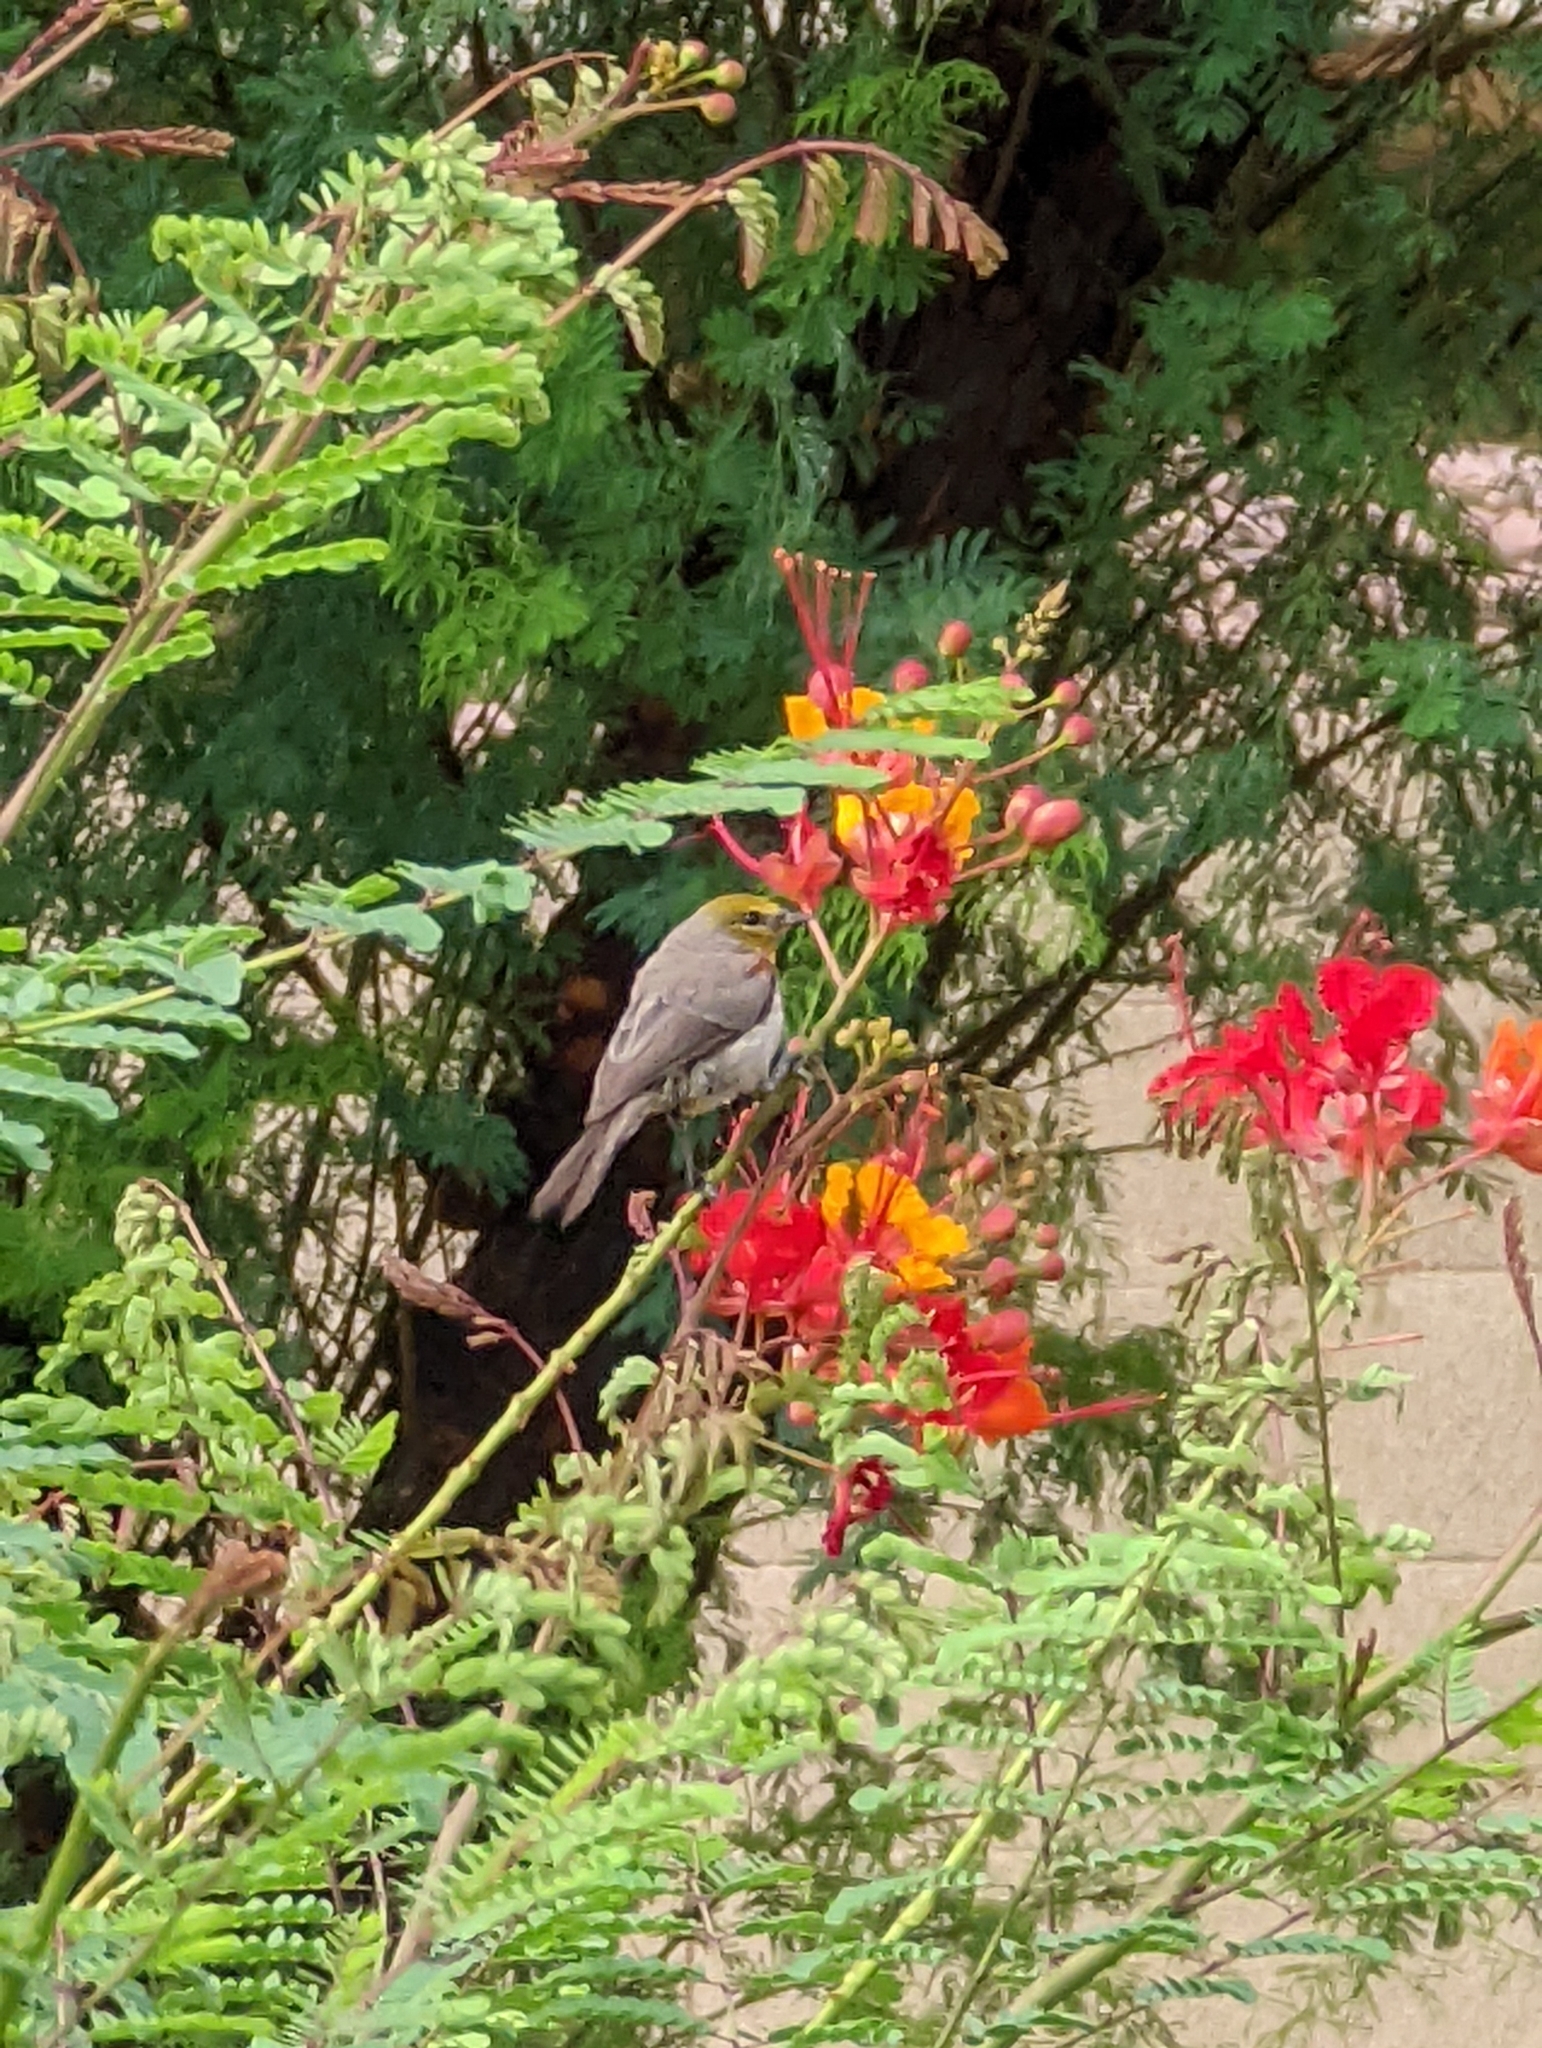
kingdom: Animalia
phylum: Chordata
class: Aves
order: Passeriformes
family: Remizidae
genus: Auriparus
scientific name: Auriparus flaviceps
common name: Verdin
